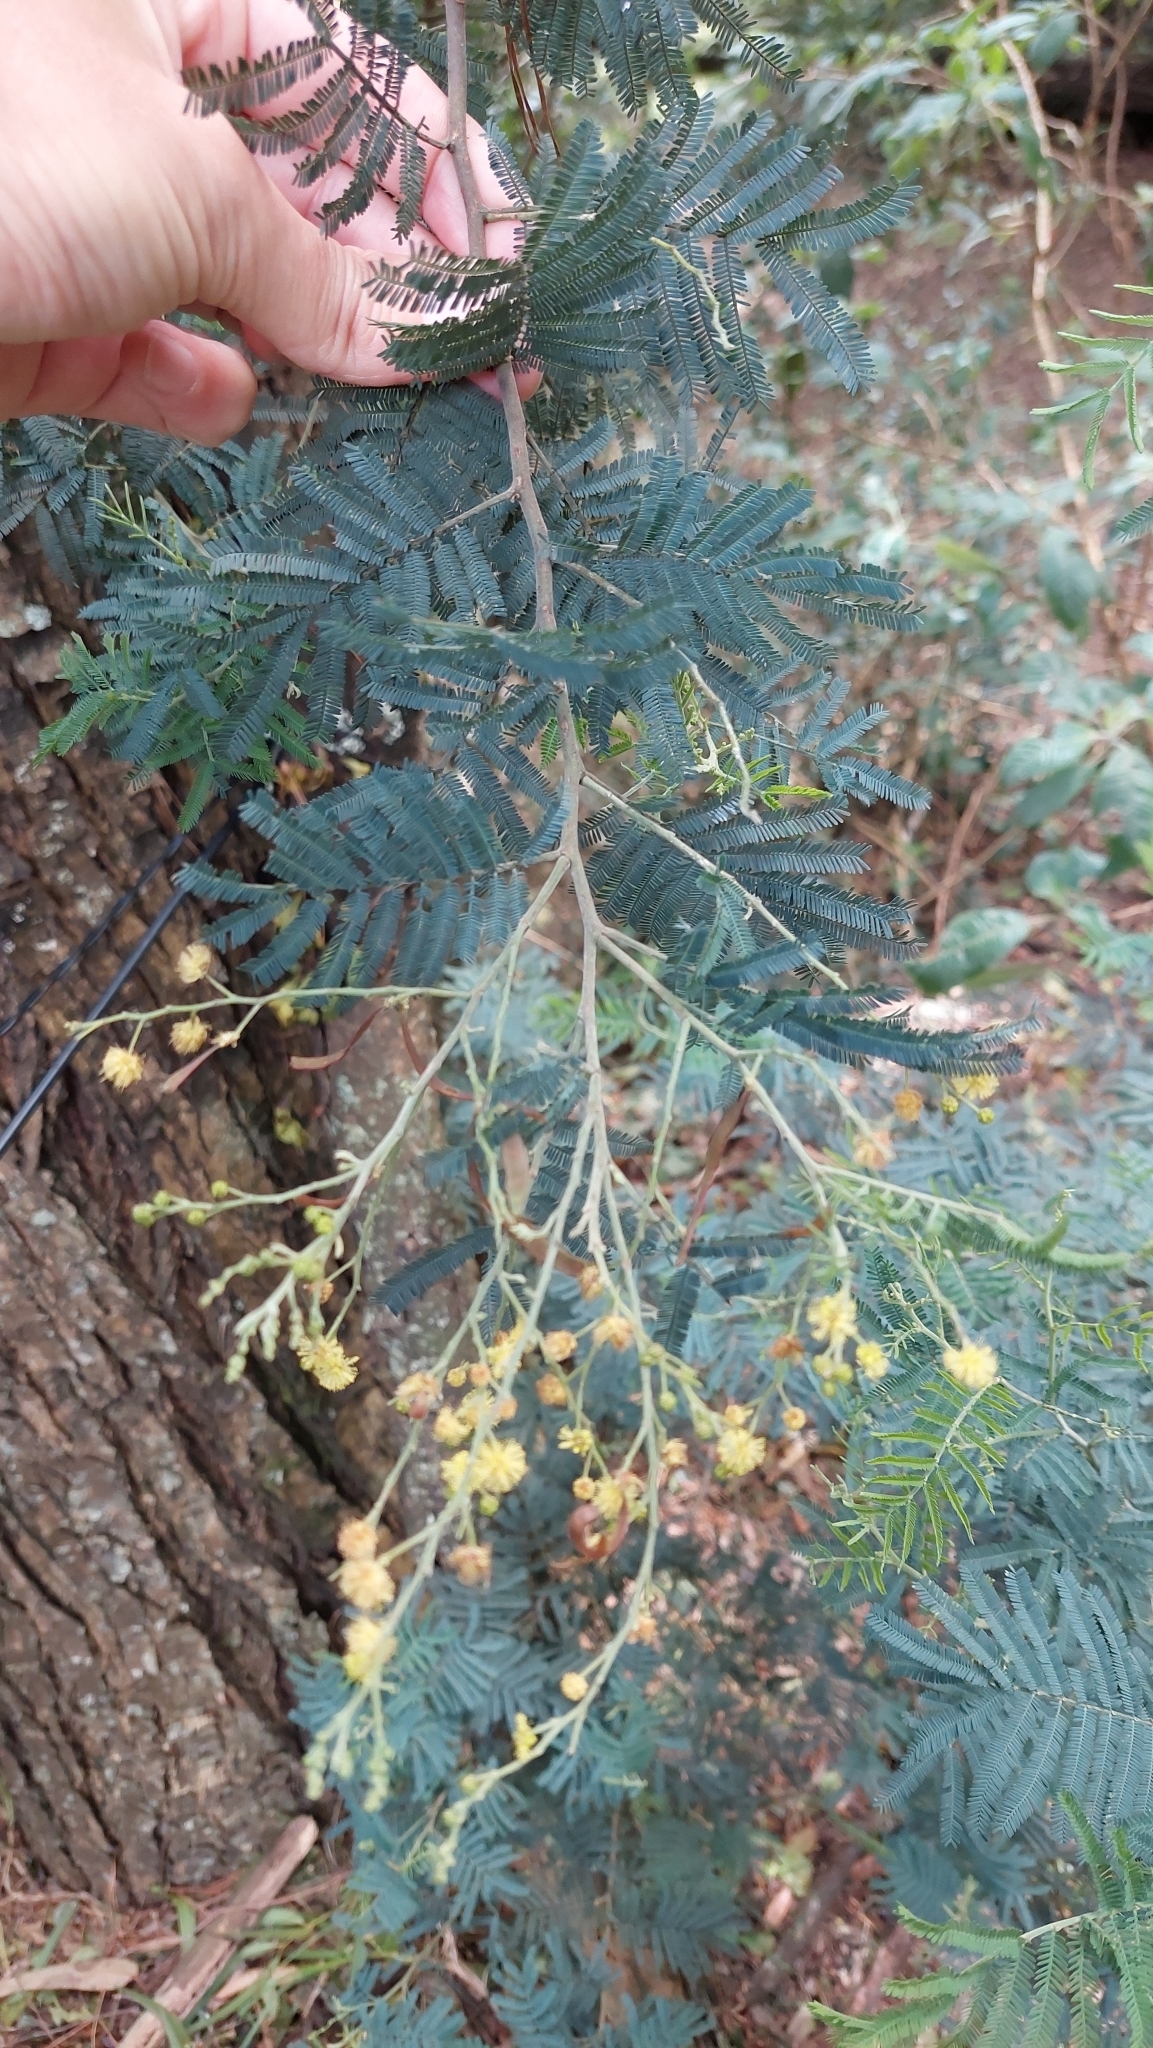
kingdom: Plantae
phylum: Tracheophyta
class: Magnoliopsida
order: Fabales
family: Fabaceae
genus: Acacia
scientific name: Acacia dealbata
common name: Silver wattle
